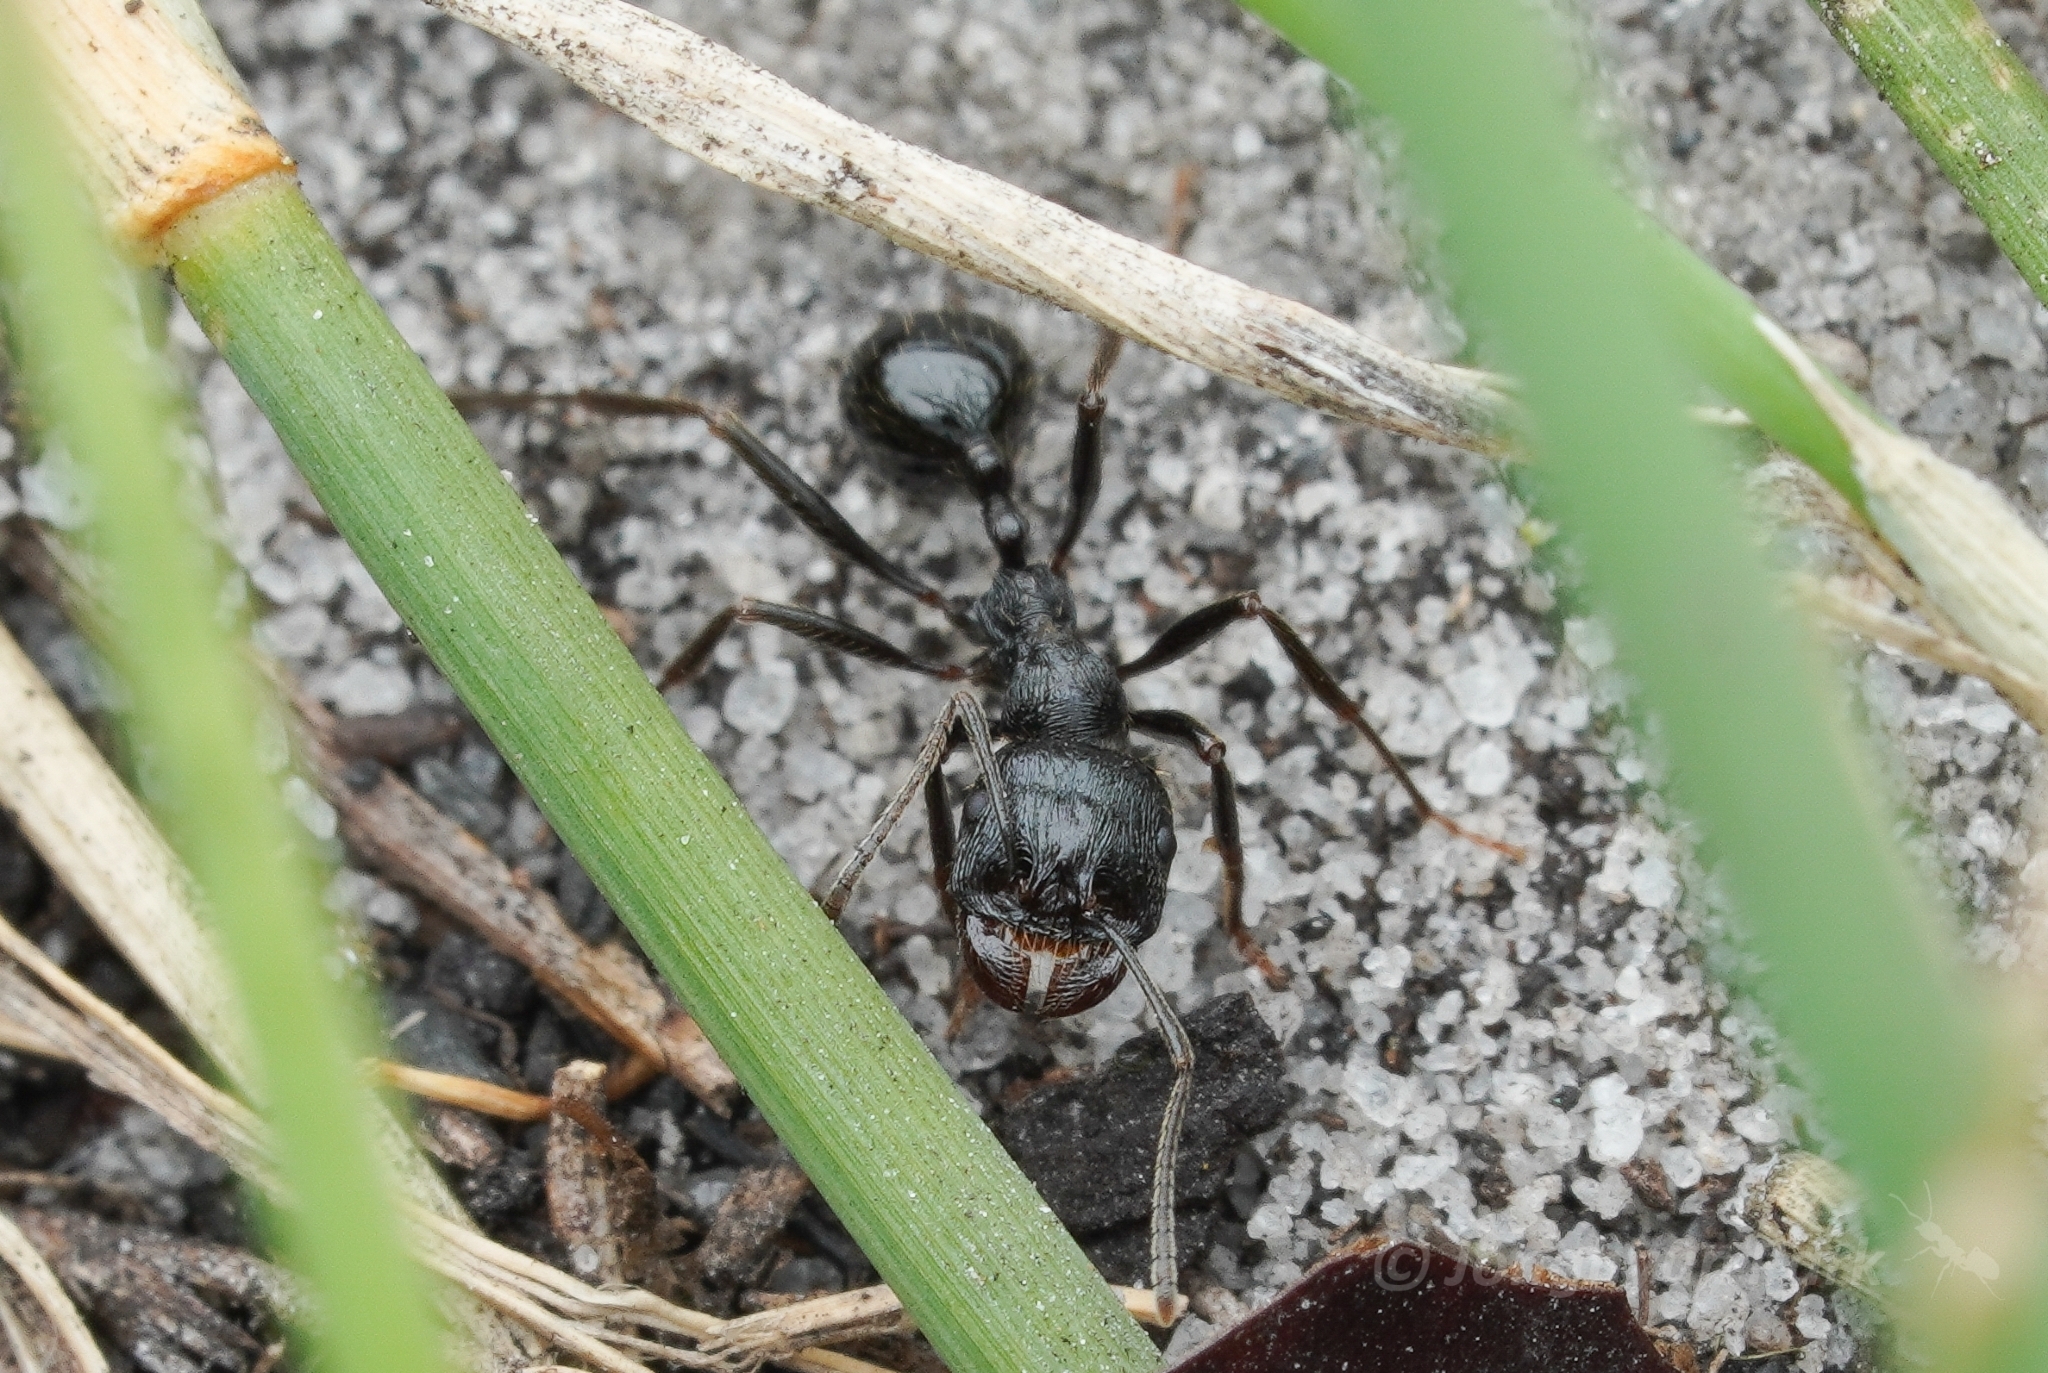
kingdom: Animalia
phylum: Arthropoda
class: Insecta
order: Hymenoptera
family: Formicidae
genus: Messor
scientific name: Messor denticornis
